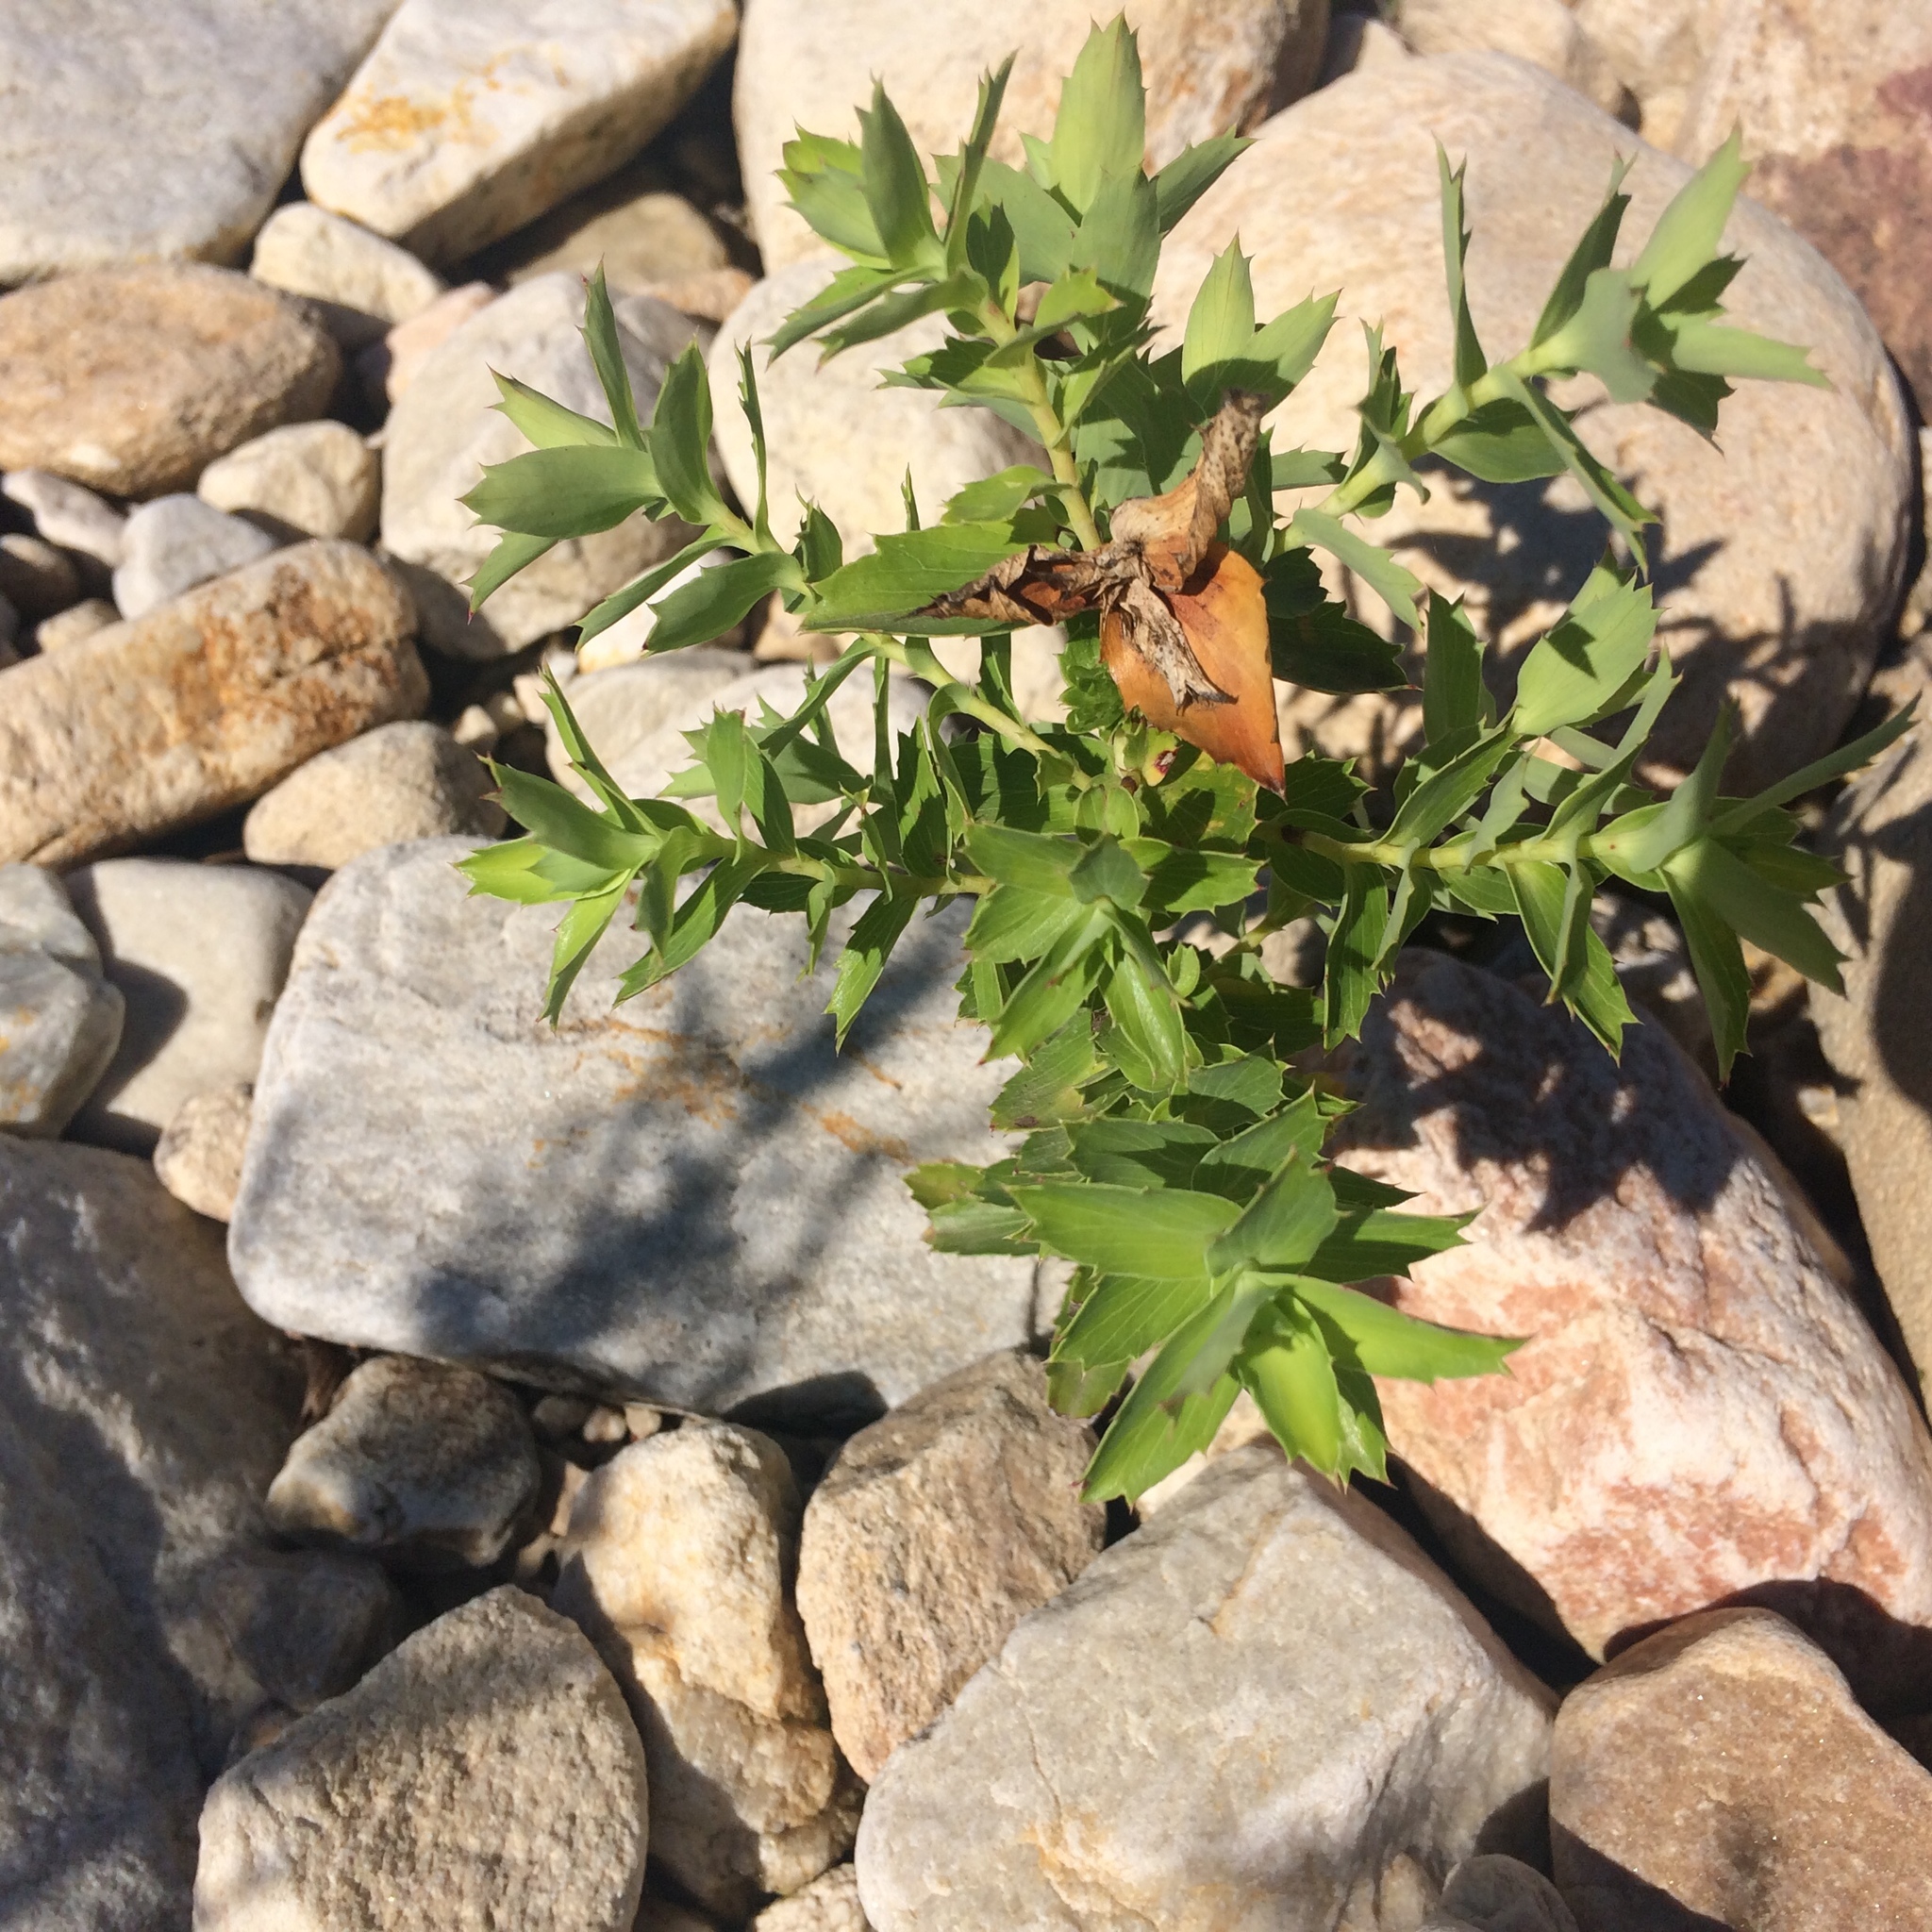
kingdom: Plantae
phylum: Tracheophyta
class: Magnoliopsida
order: Rosales
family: Rosaceae
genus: Cliffortia
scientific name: Cliffortia ilicifolia
